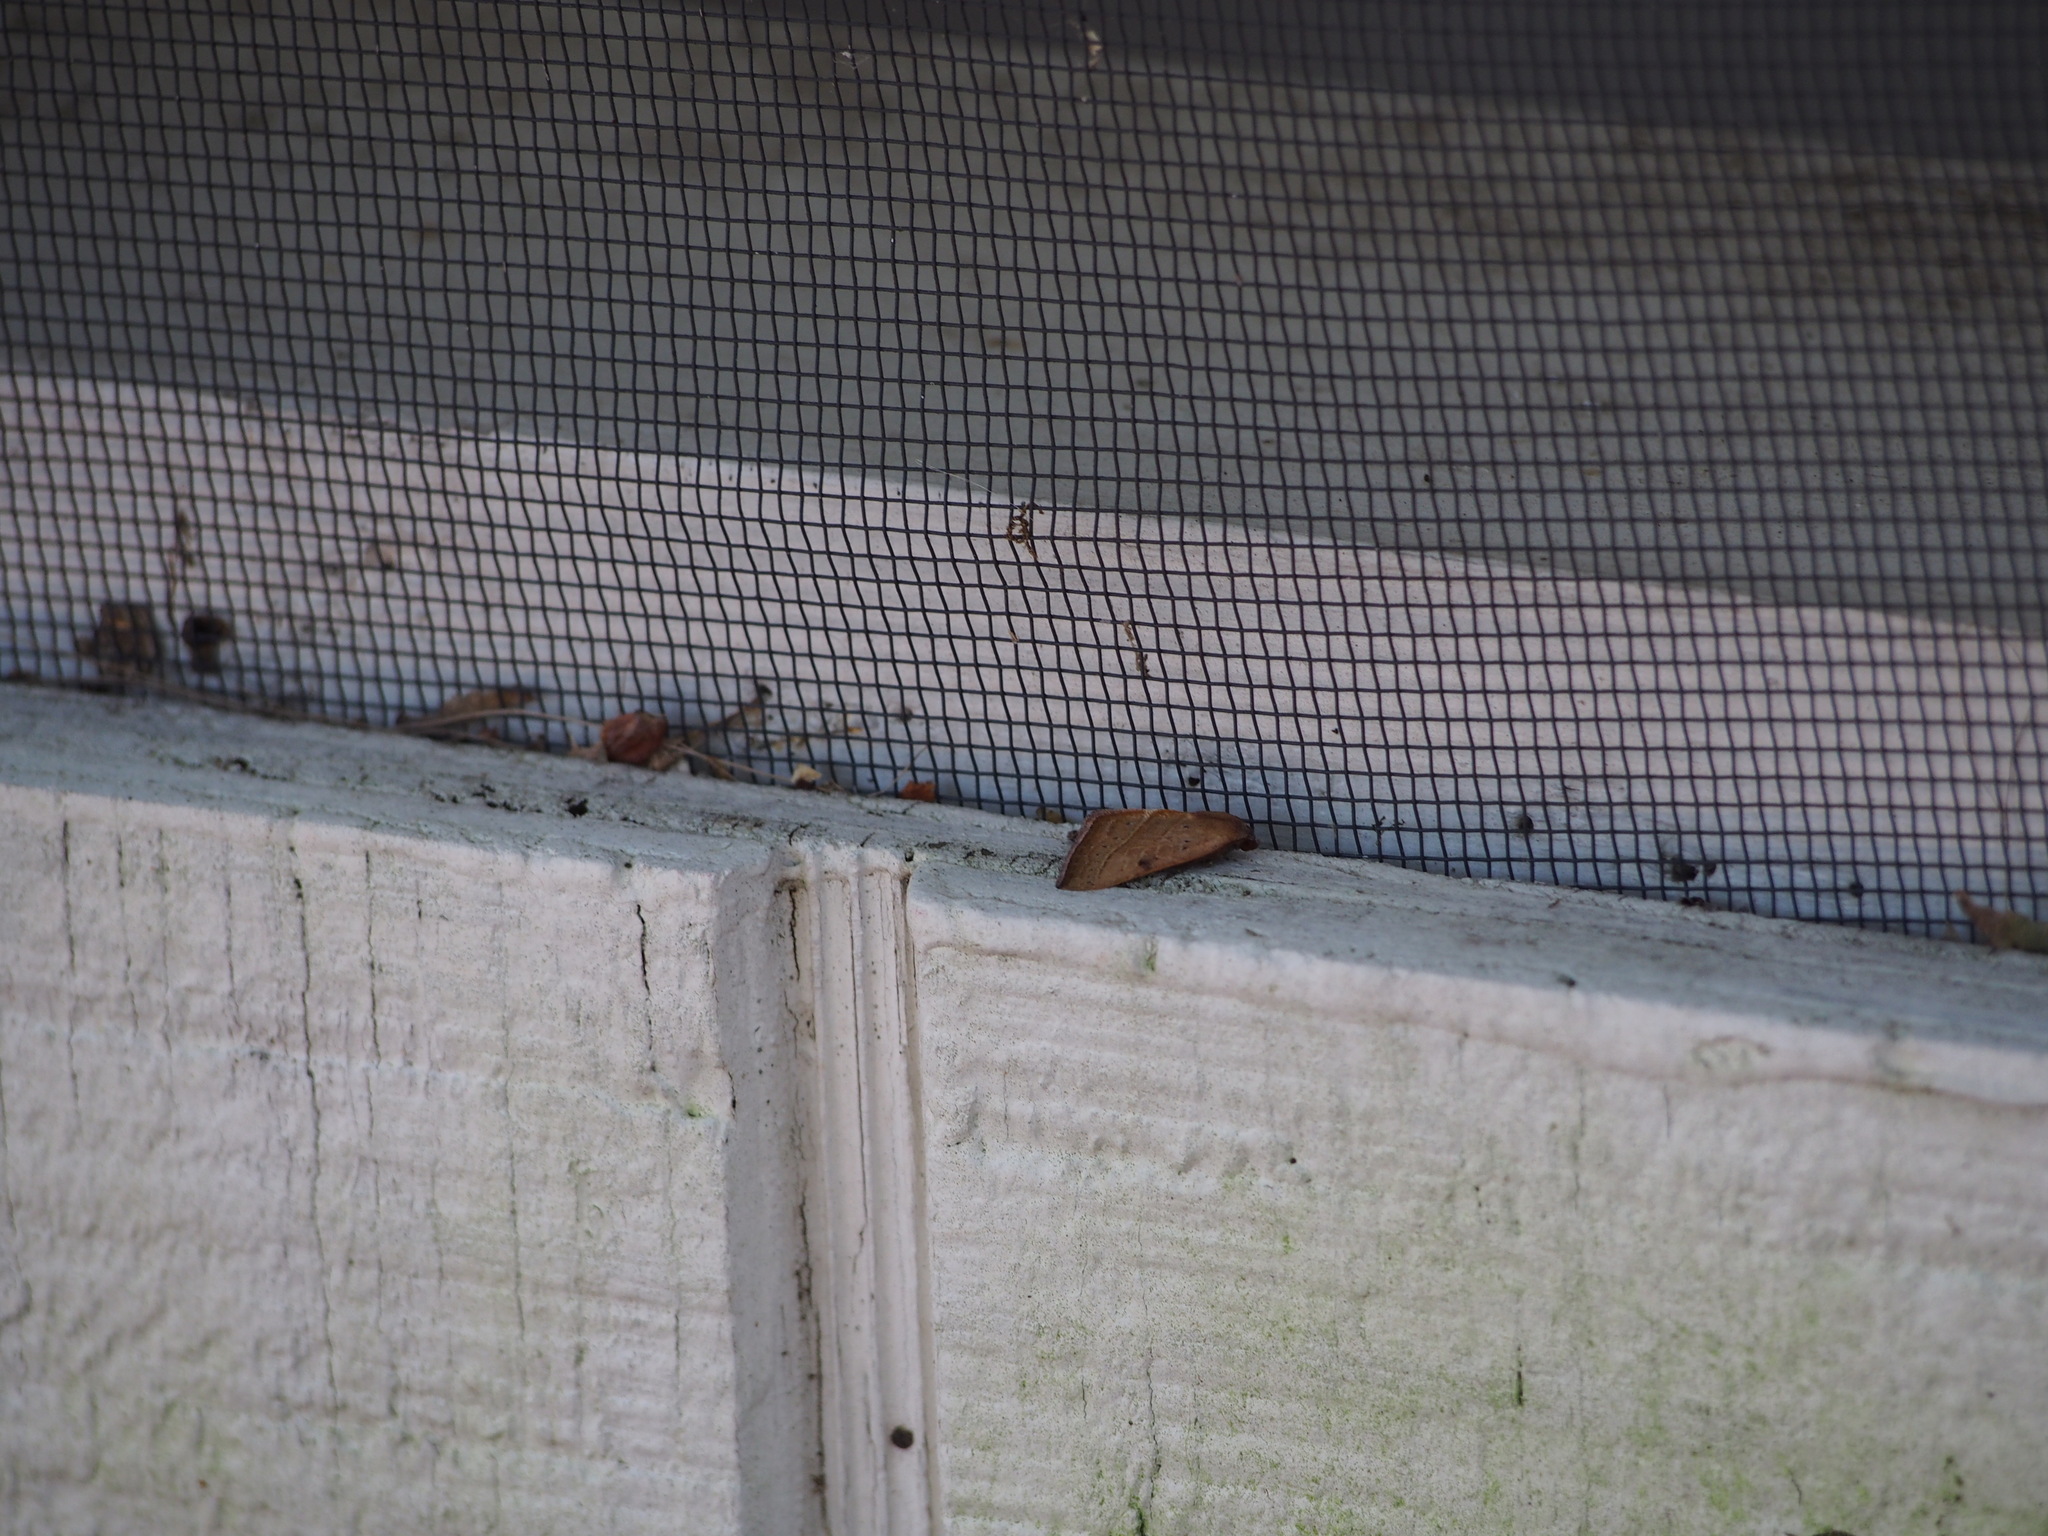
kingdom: Animalia
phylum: Arthropoda
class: Insecta
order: Lepidoptera
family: Noctuidae
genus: Galgula
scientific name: Galgula partita
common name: Wedgeling
